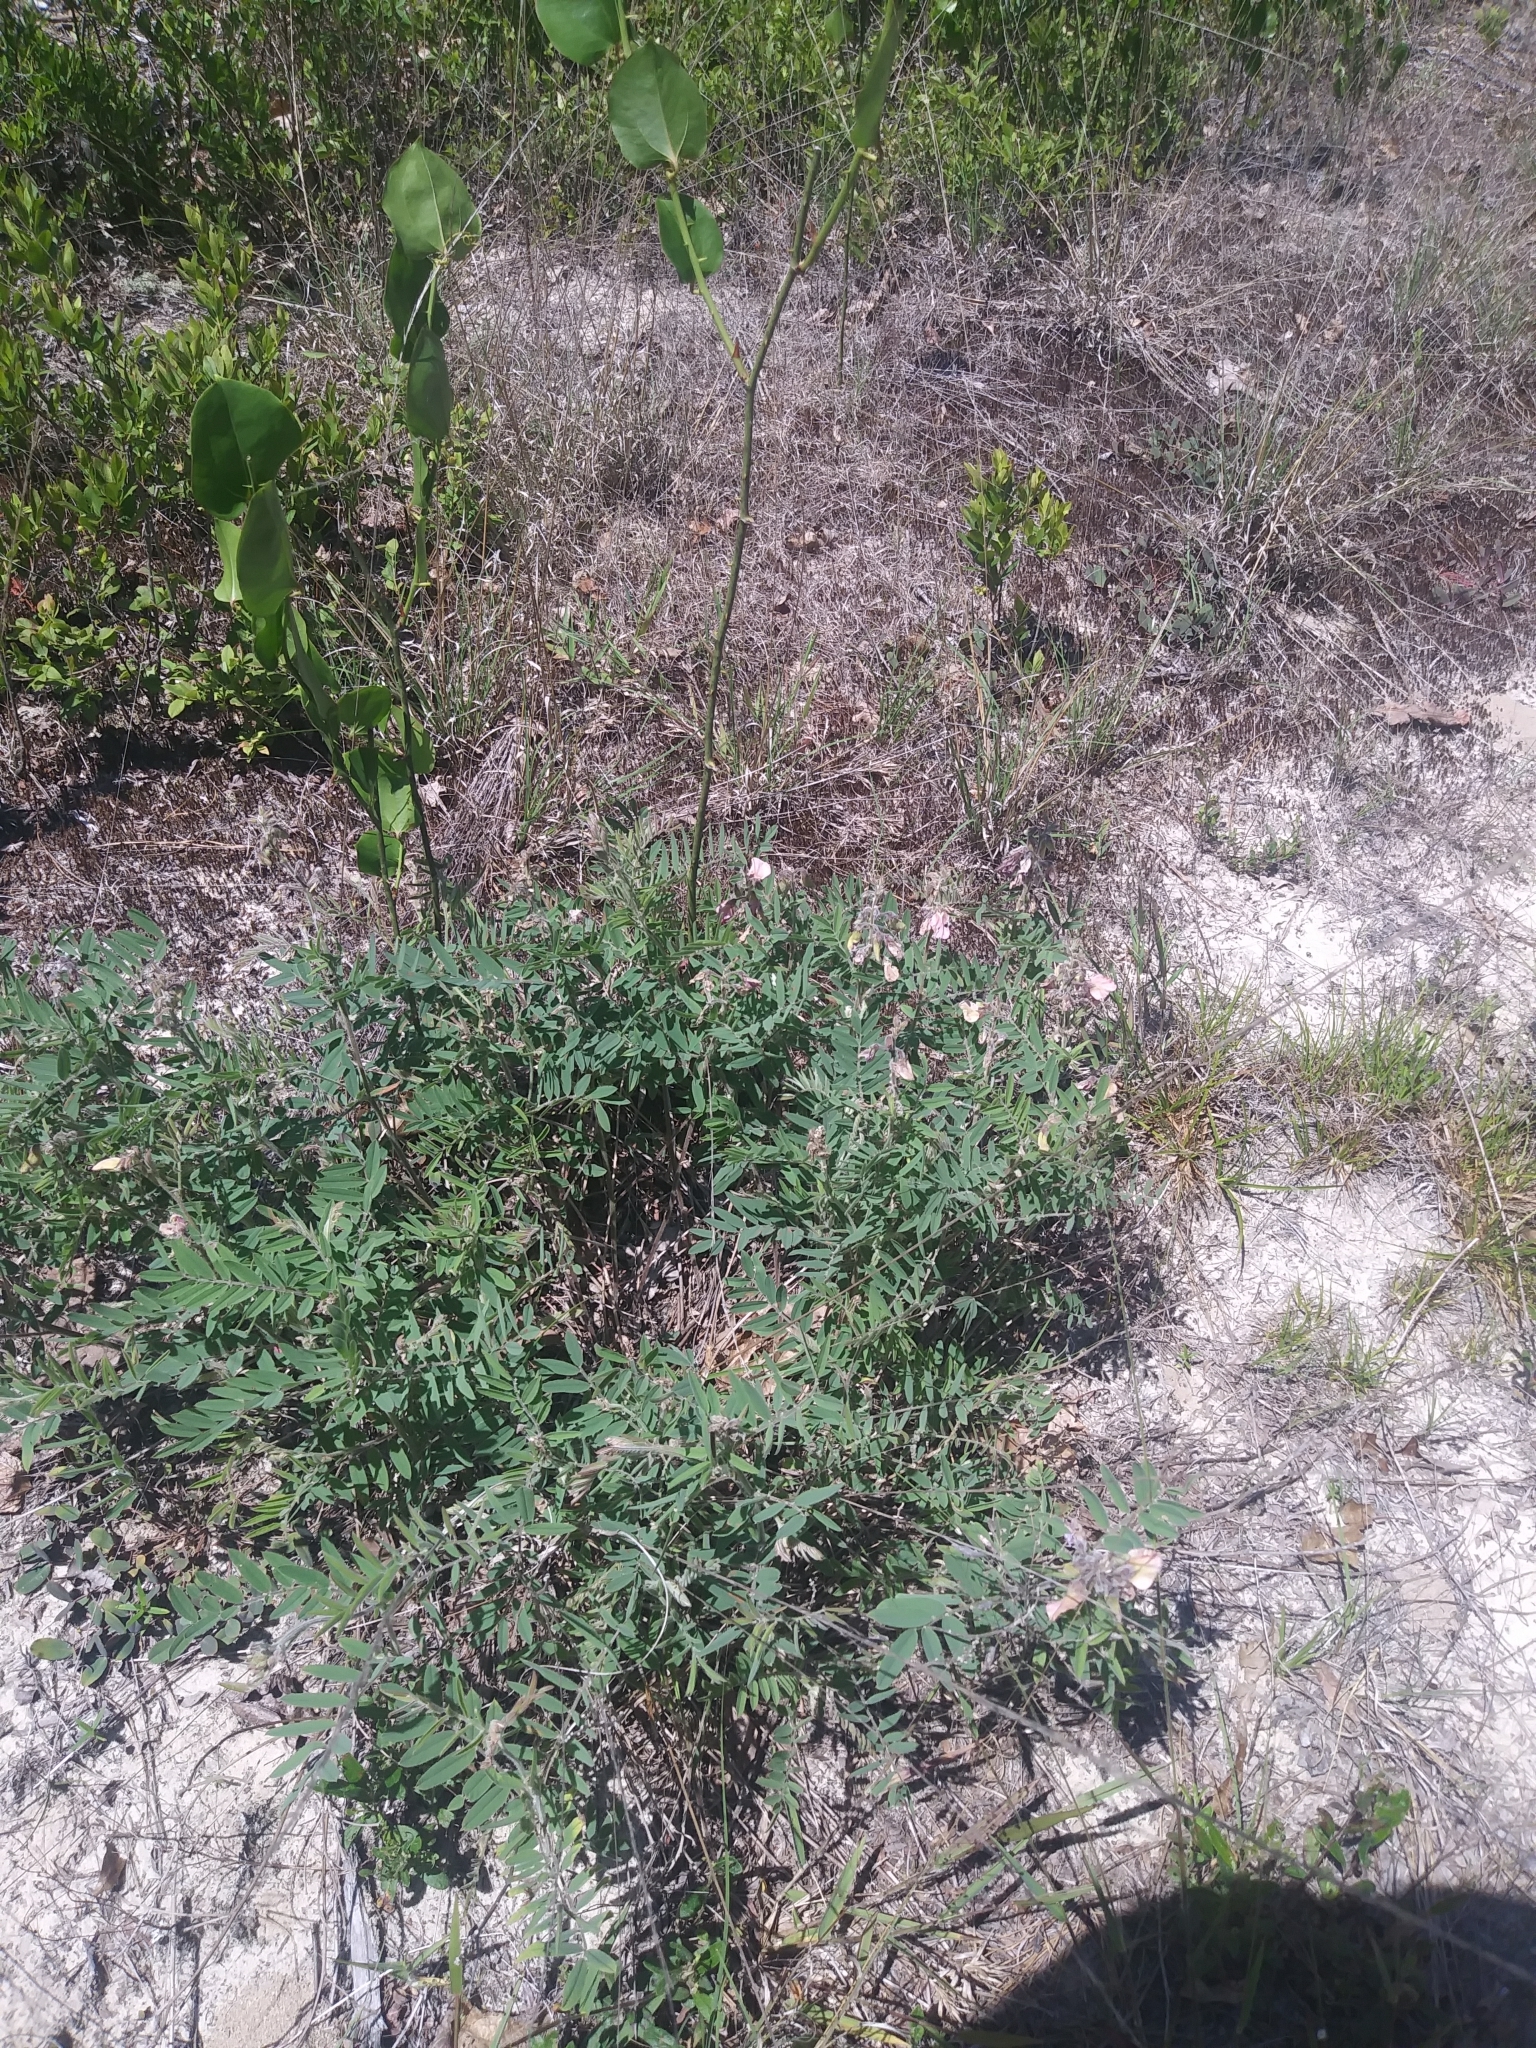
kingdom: Plantae
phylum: Tracheophyta
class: Magnoliopsida
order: Fabales
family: Fabaceae
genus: Tephrosia
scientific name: Tephrosia virginiana
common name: Rabbit-pea
